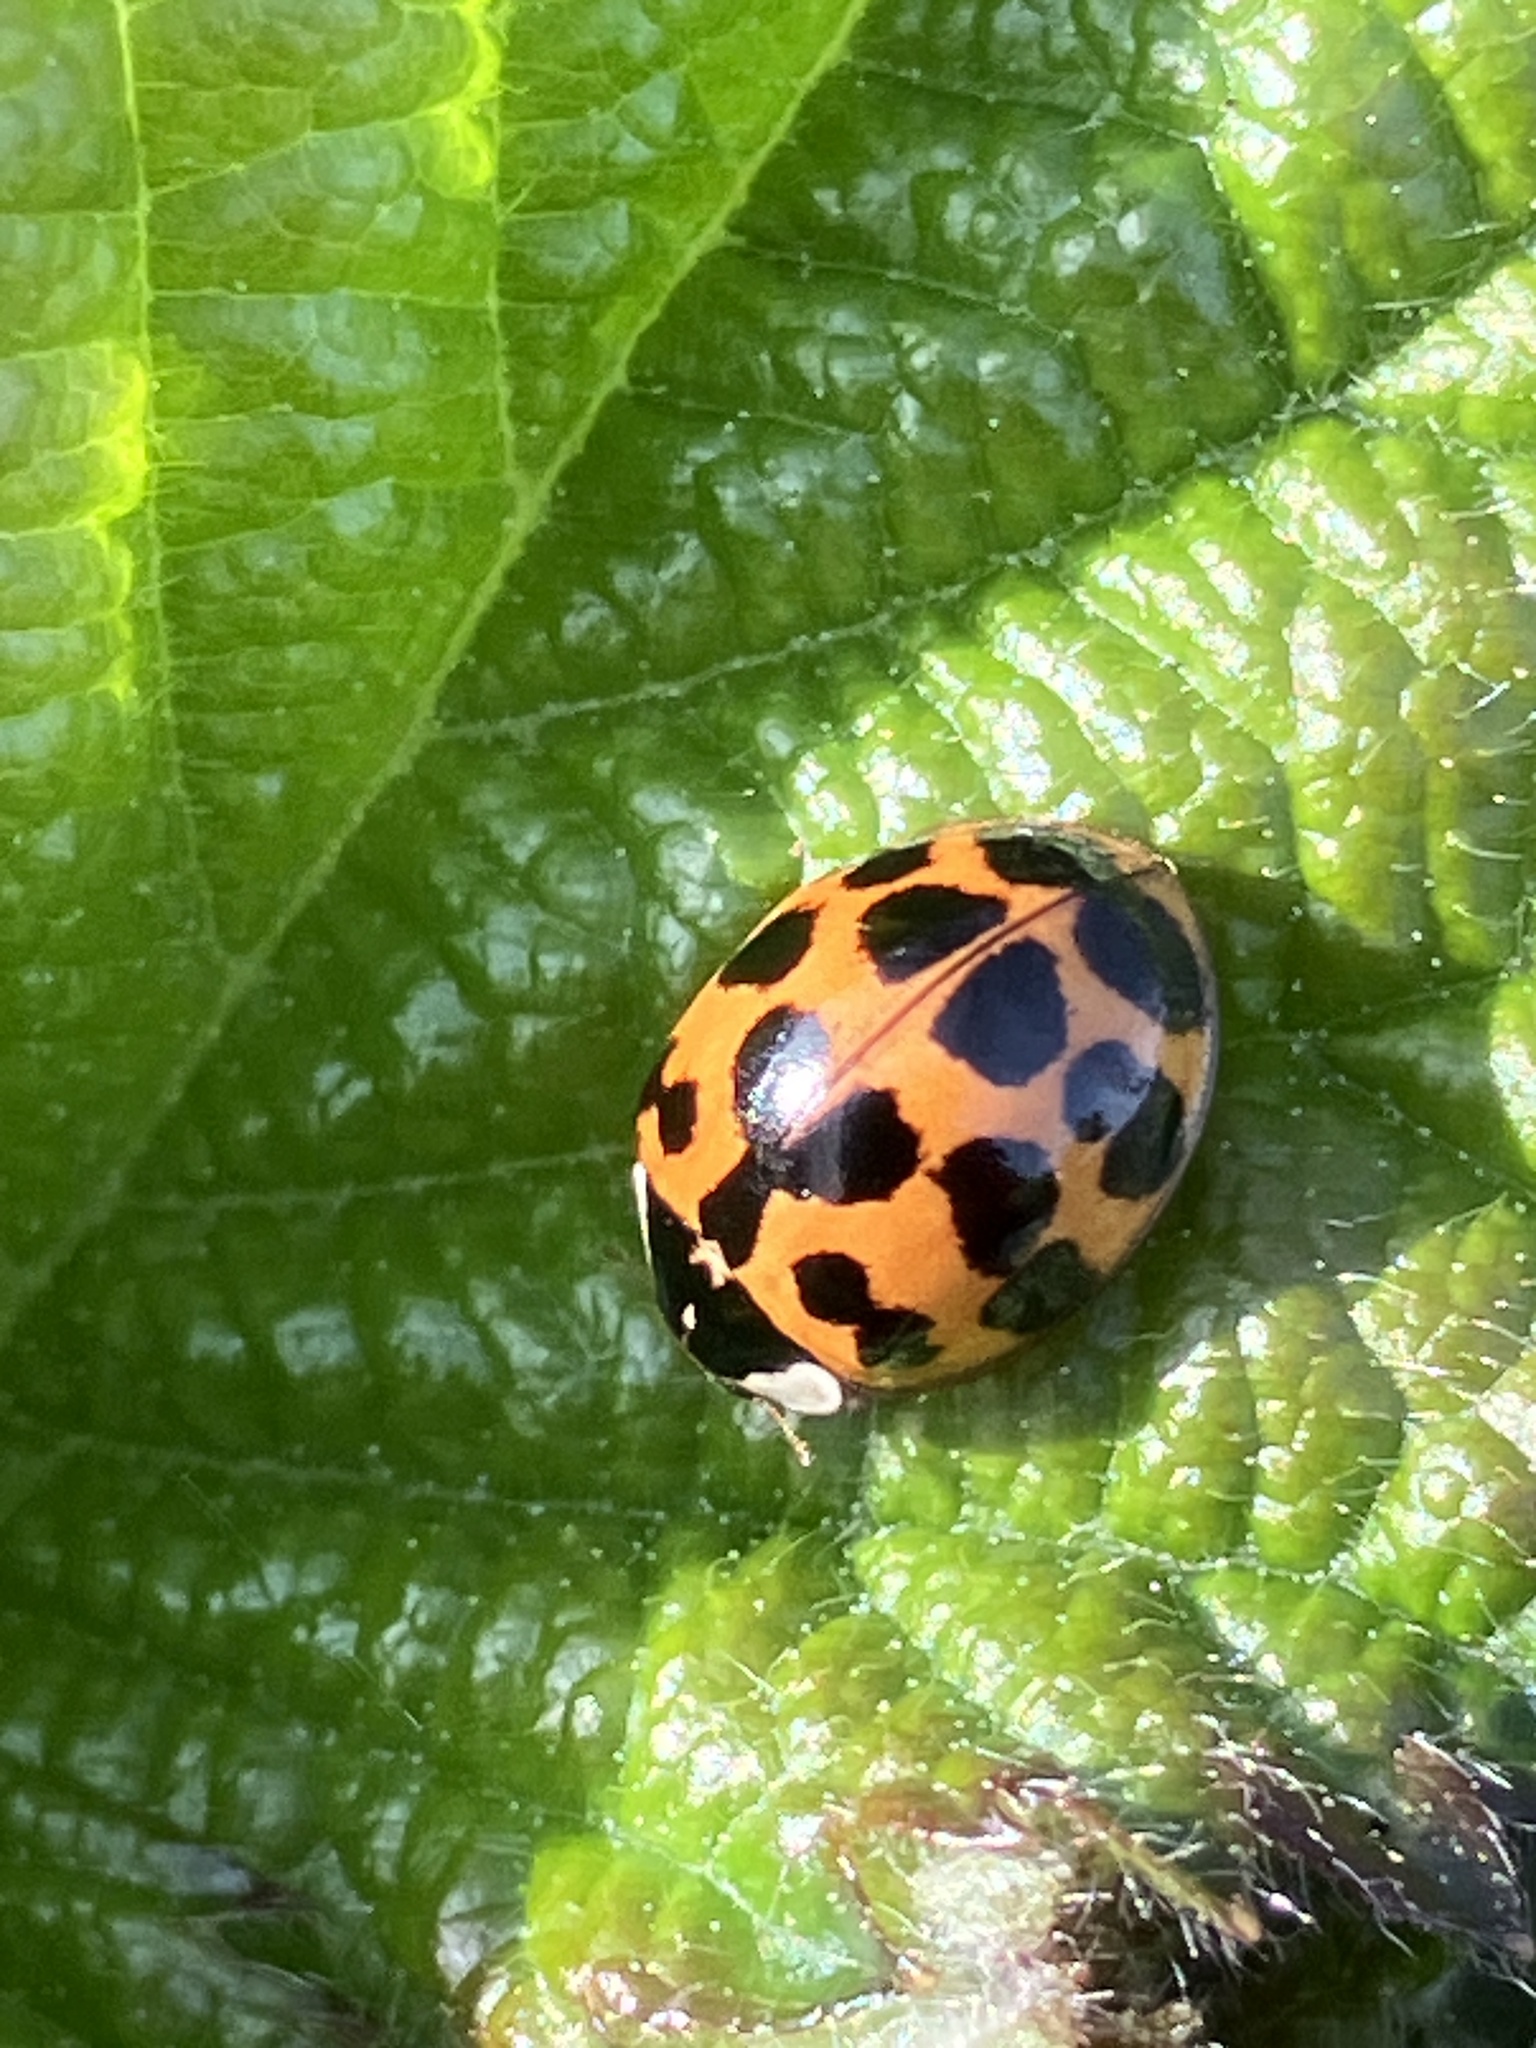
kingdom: Animalia
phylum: Arthropoda
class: Insecta
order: Coleoptera
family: Coccinellidae
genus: Harmonia
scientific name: Harmonia axyridis
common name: Harlequin ladybird
